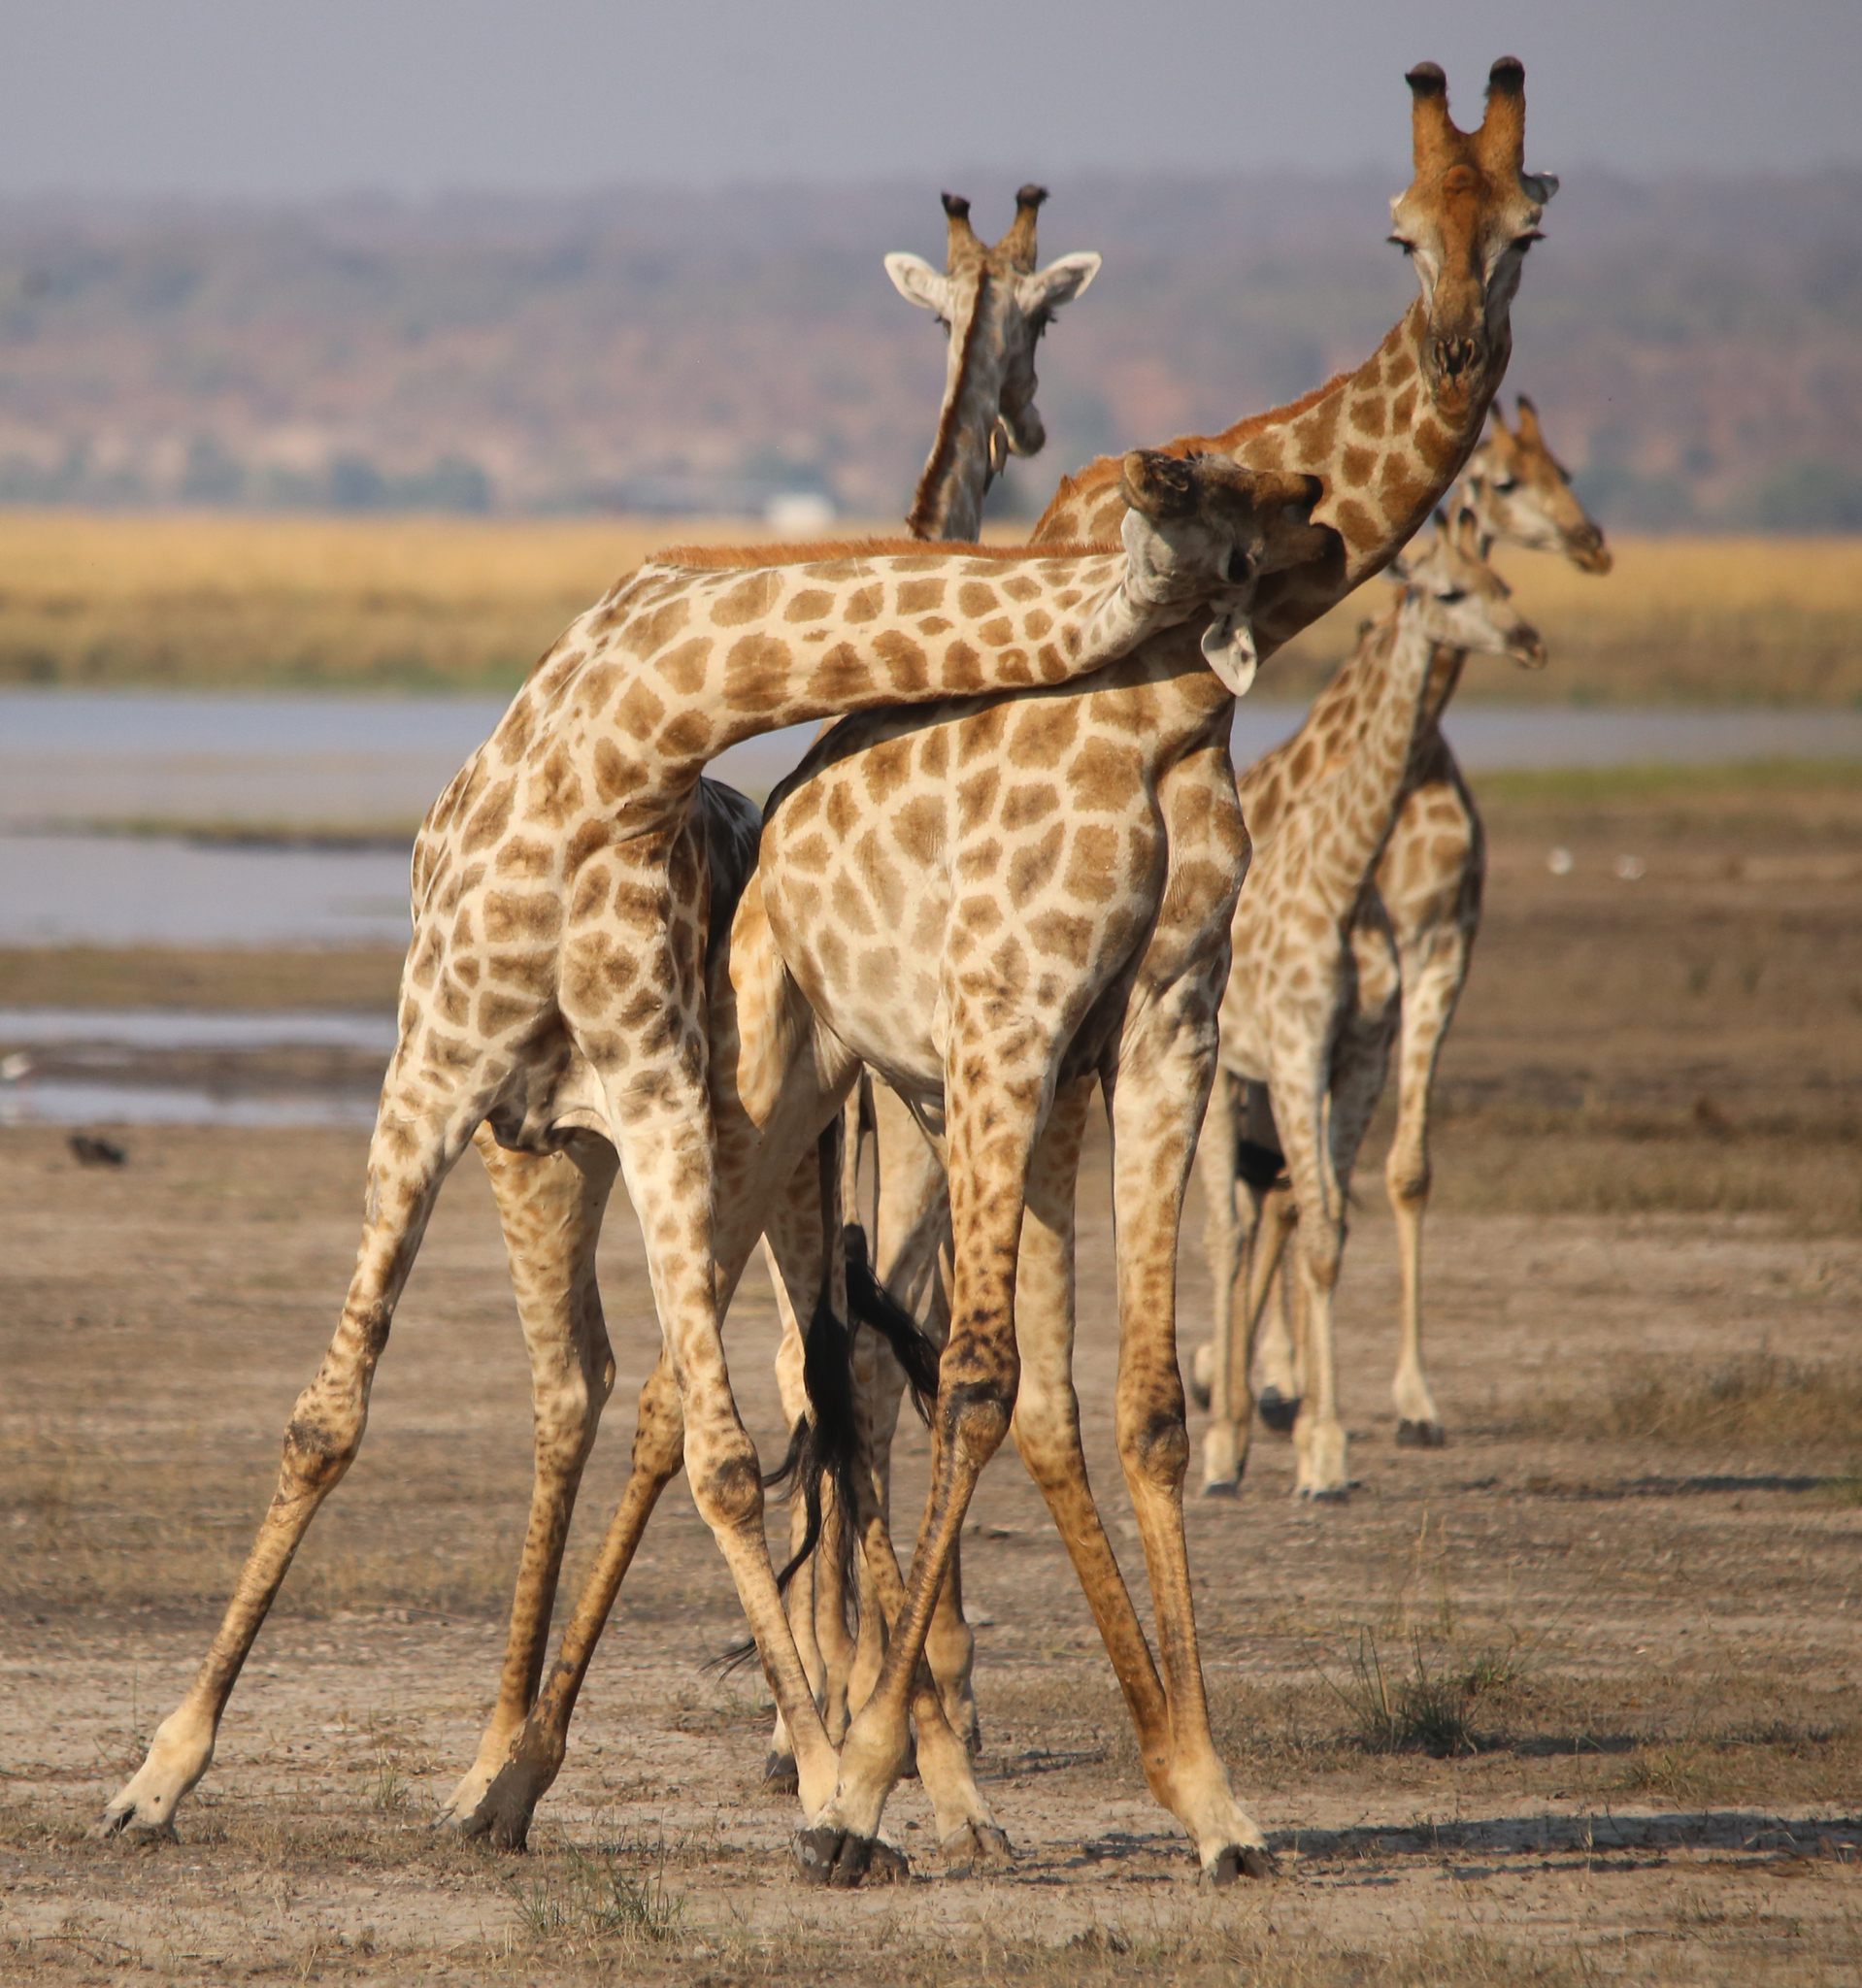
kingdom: Animalia
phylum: Chordata
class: Mammalia
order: Artiodactyla
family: Giraffidae
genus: Giraffa
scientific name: Giraffa giraffa
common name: Southern giraffe
